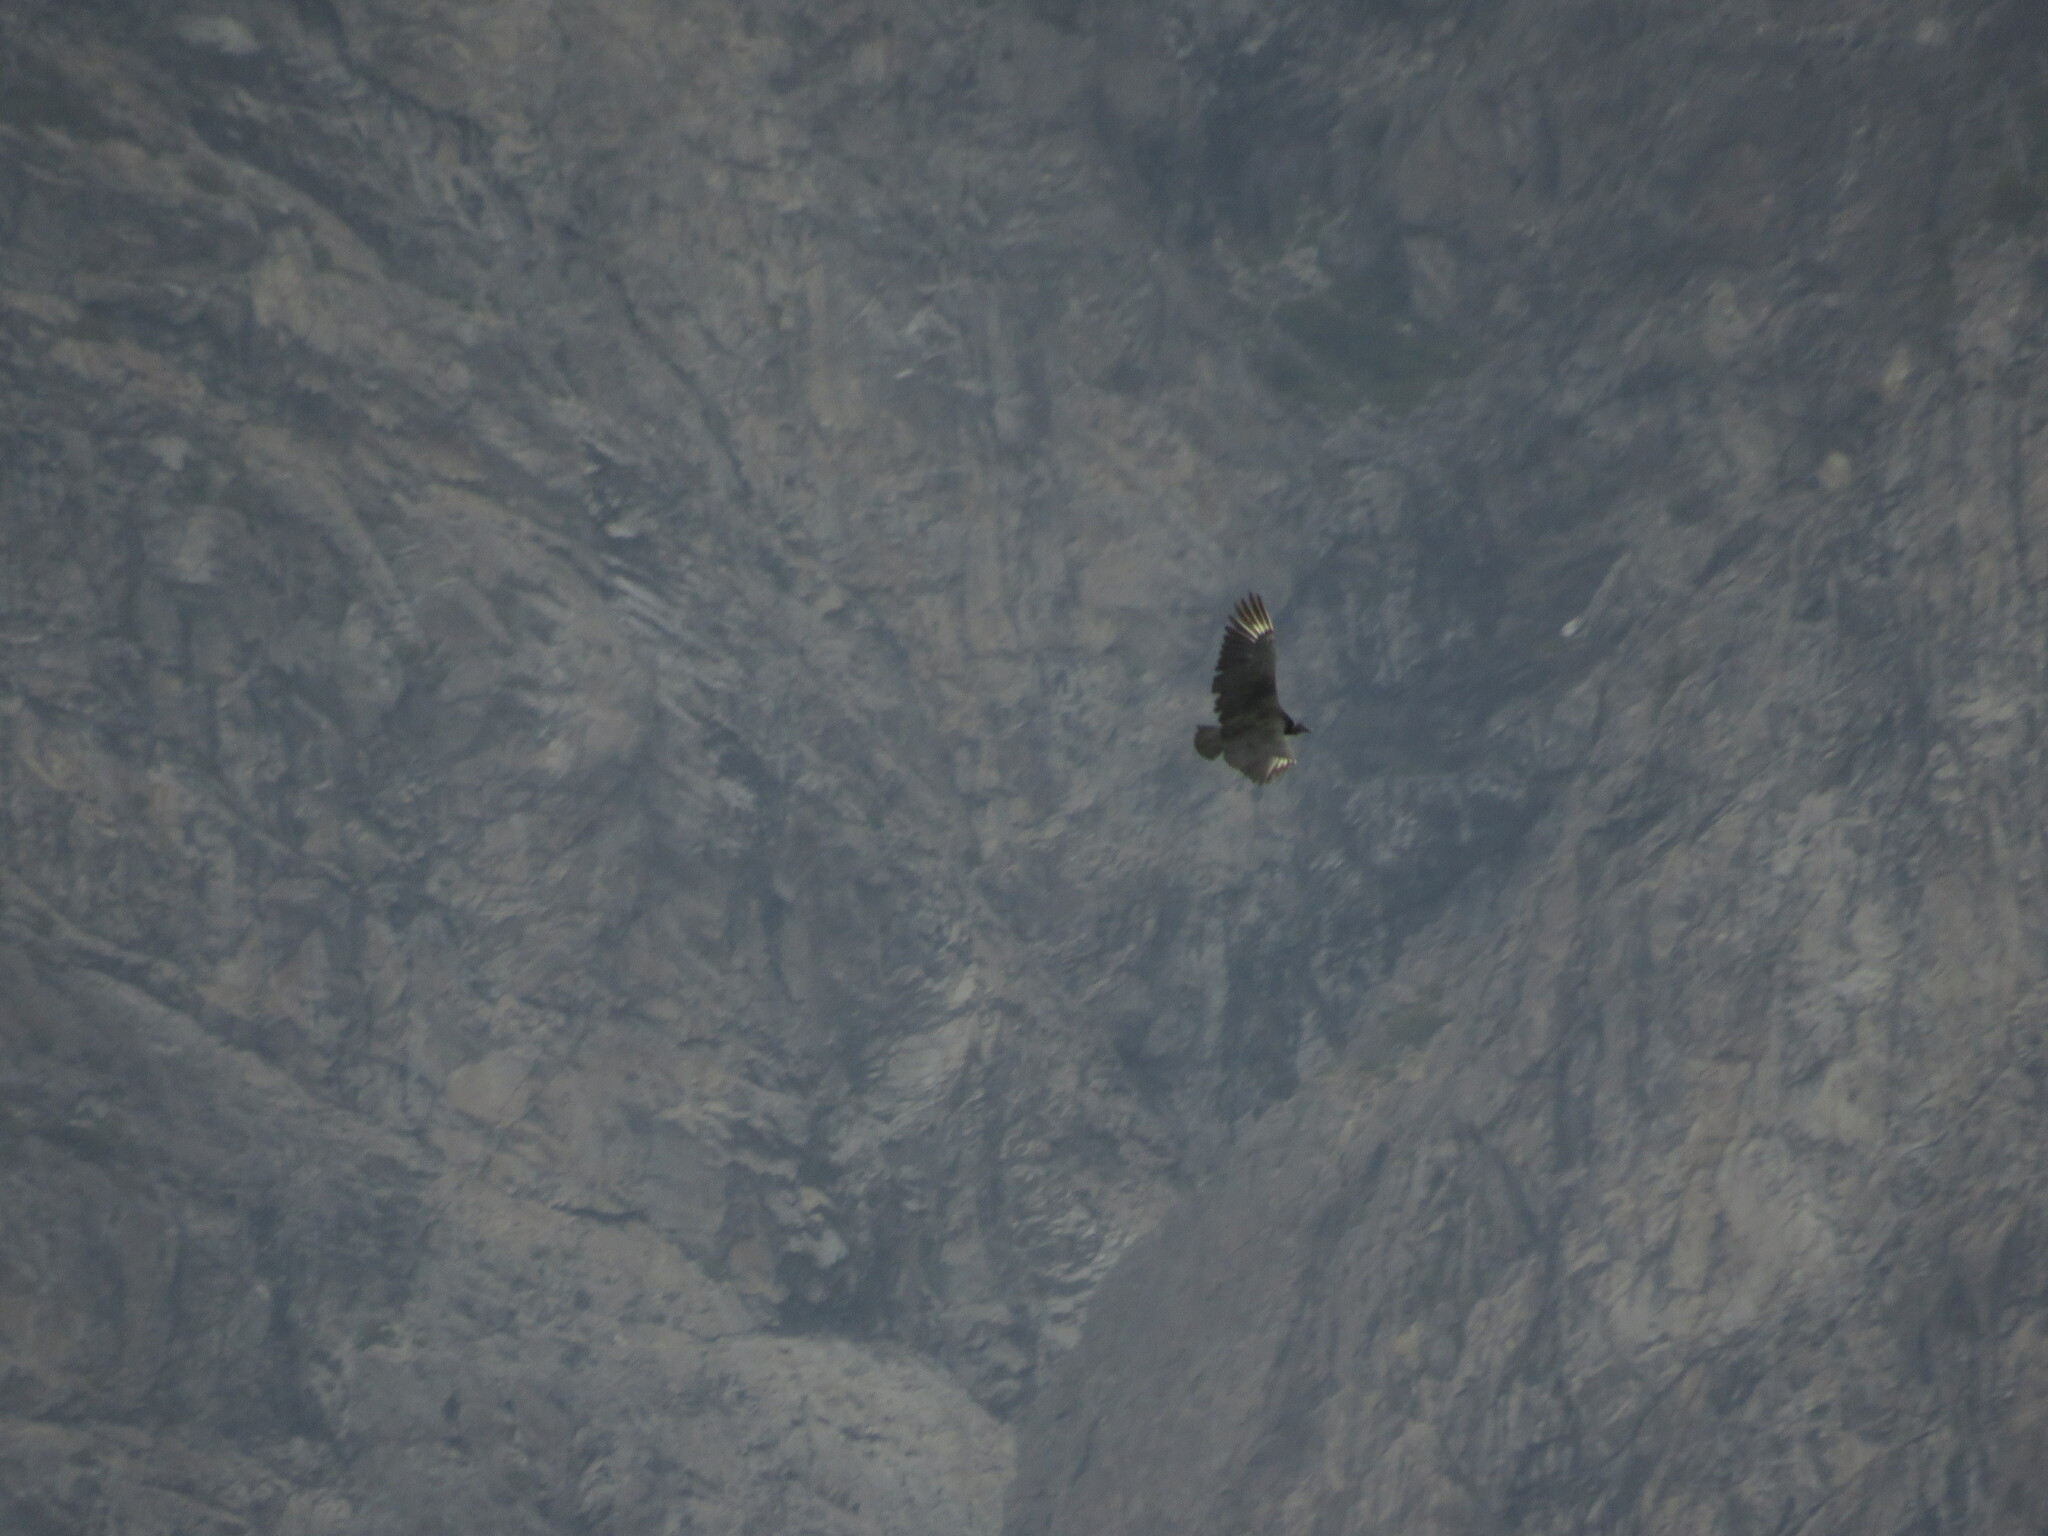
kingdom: Animalia
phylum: Chordata
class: Aves
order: Accipitriformes
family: Cathartidae
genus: Coragyps
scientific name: Coragyps atratus
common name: Black vulture
